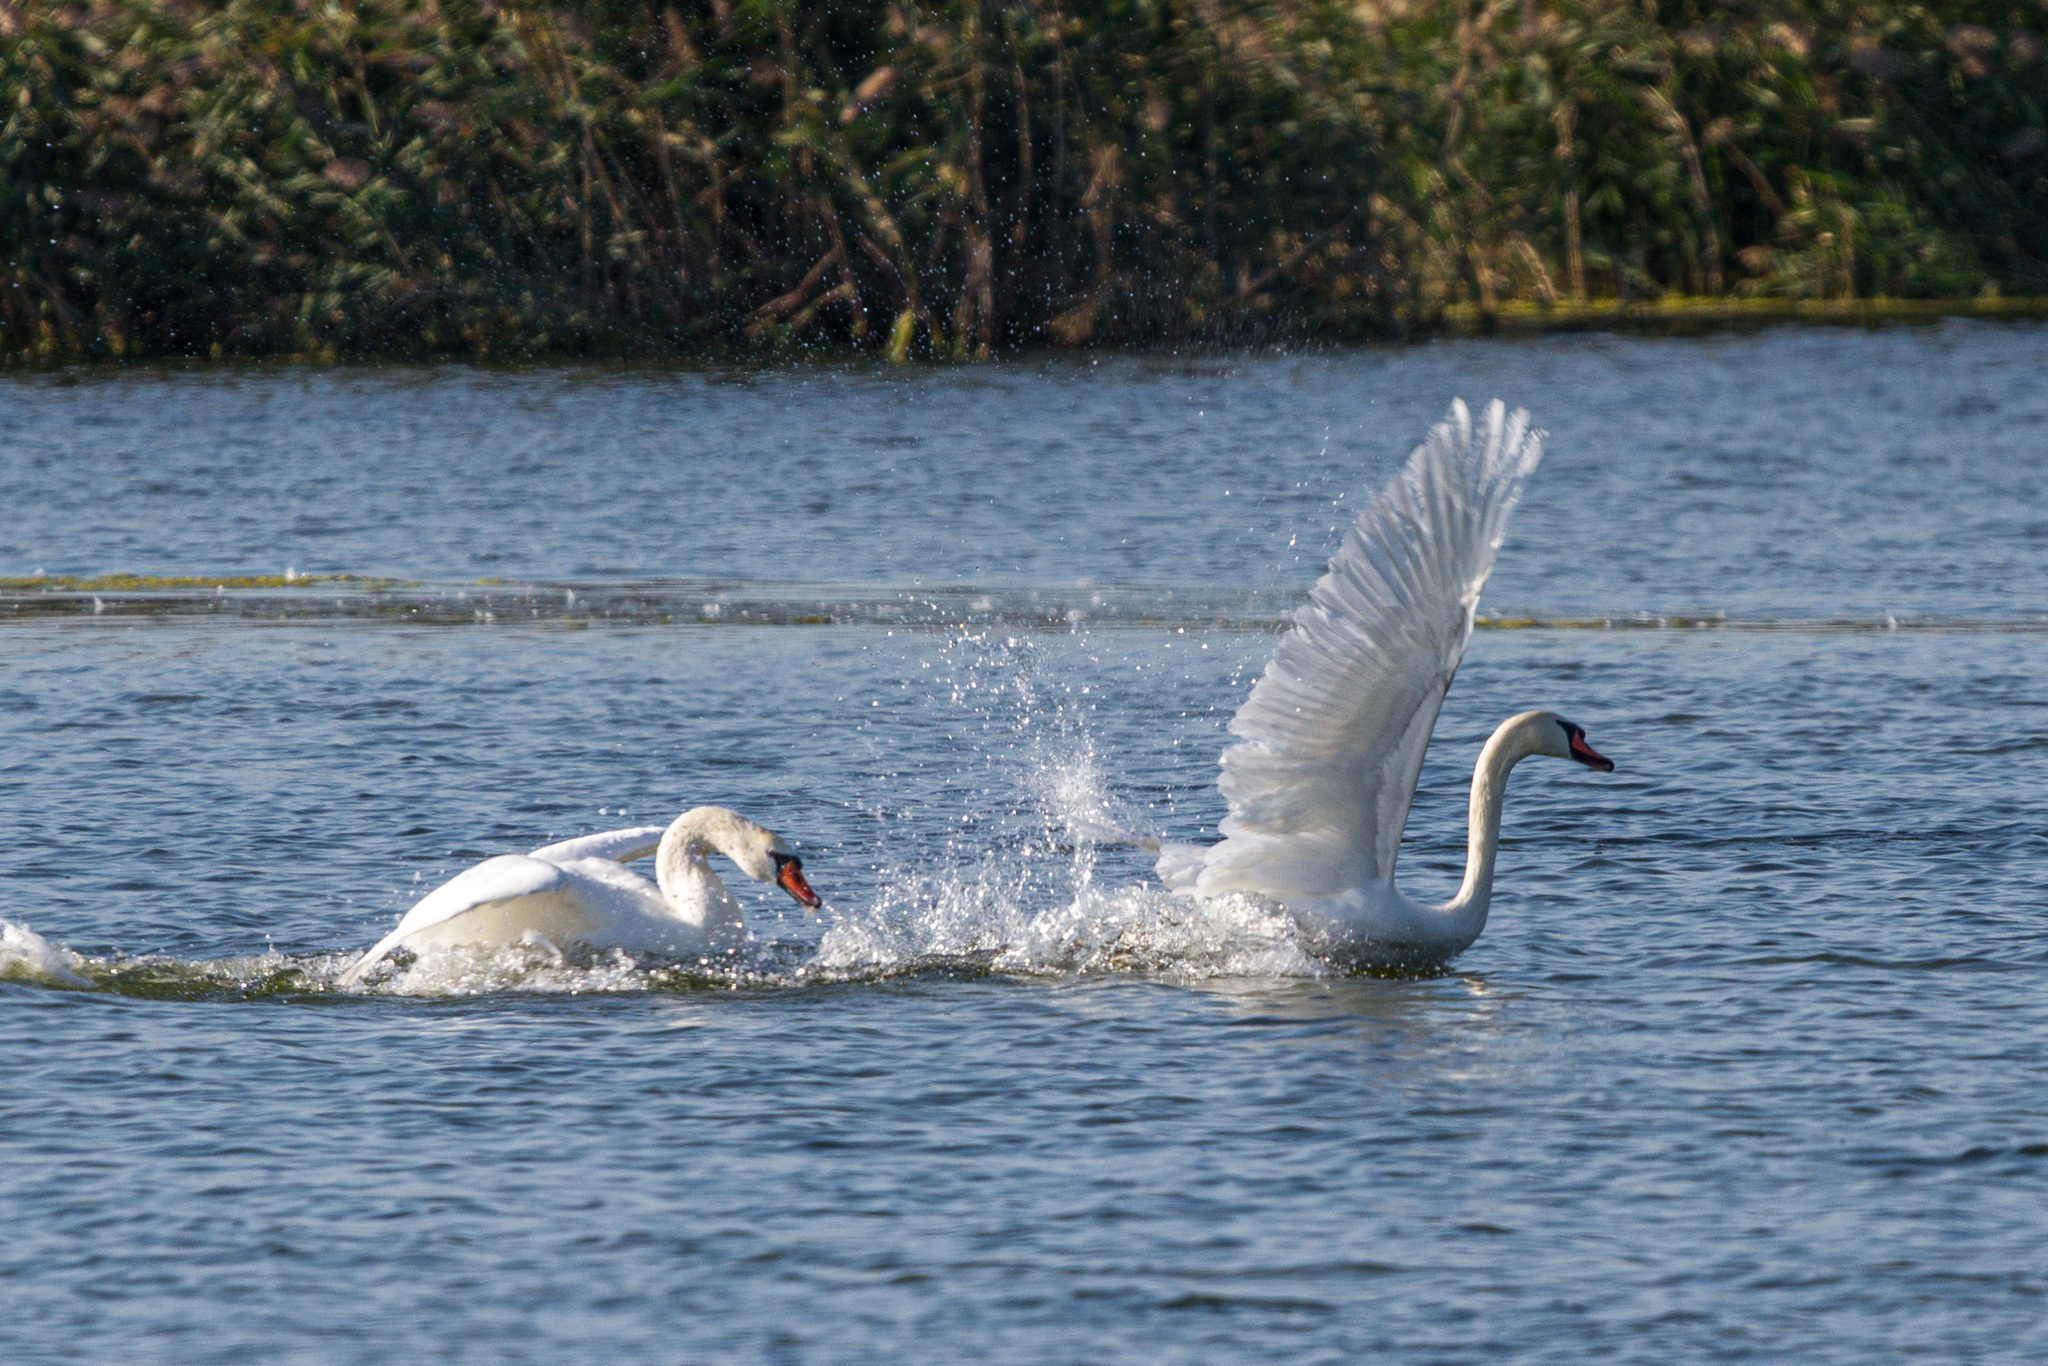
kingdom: Animalia
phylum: Chordata
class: Aves
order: Anseriformes
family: Anatidae
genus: Cygnus
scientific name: Cygnus olor
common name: Mute swan
